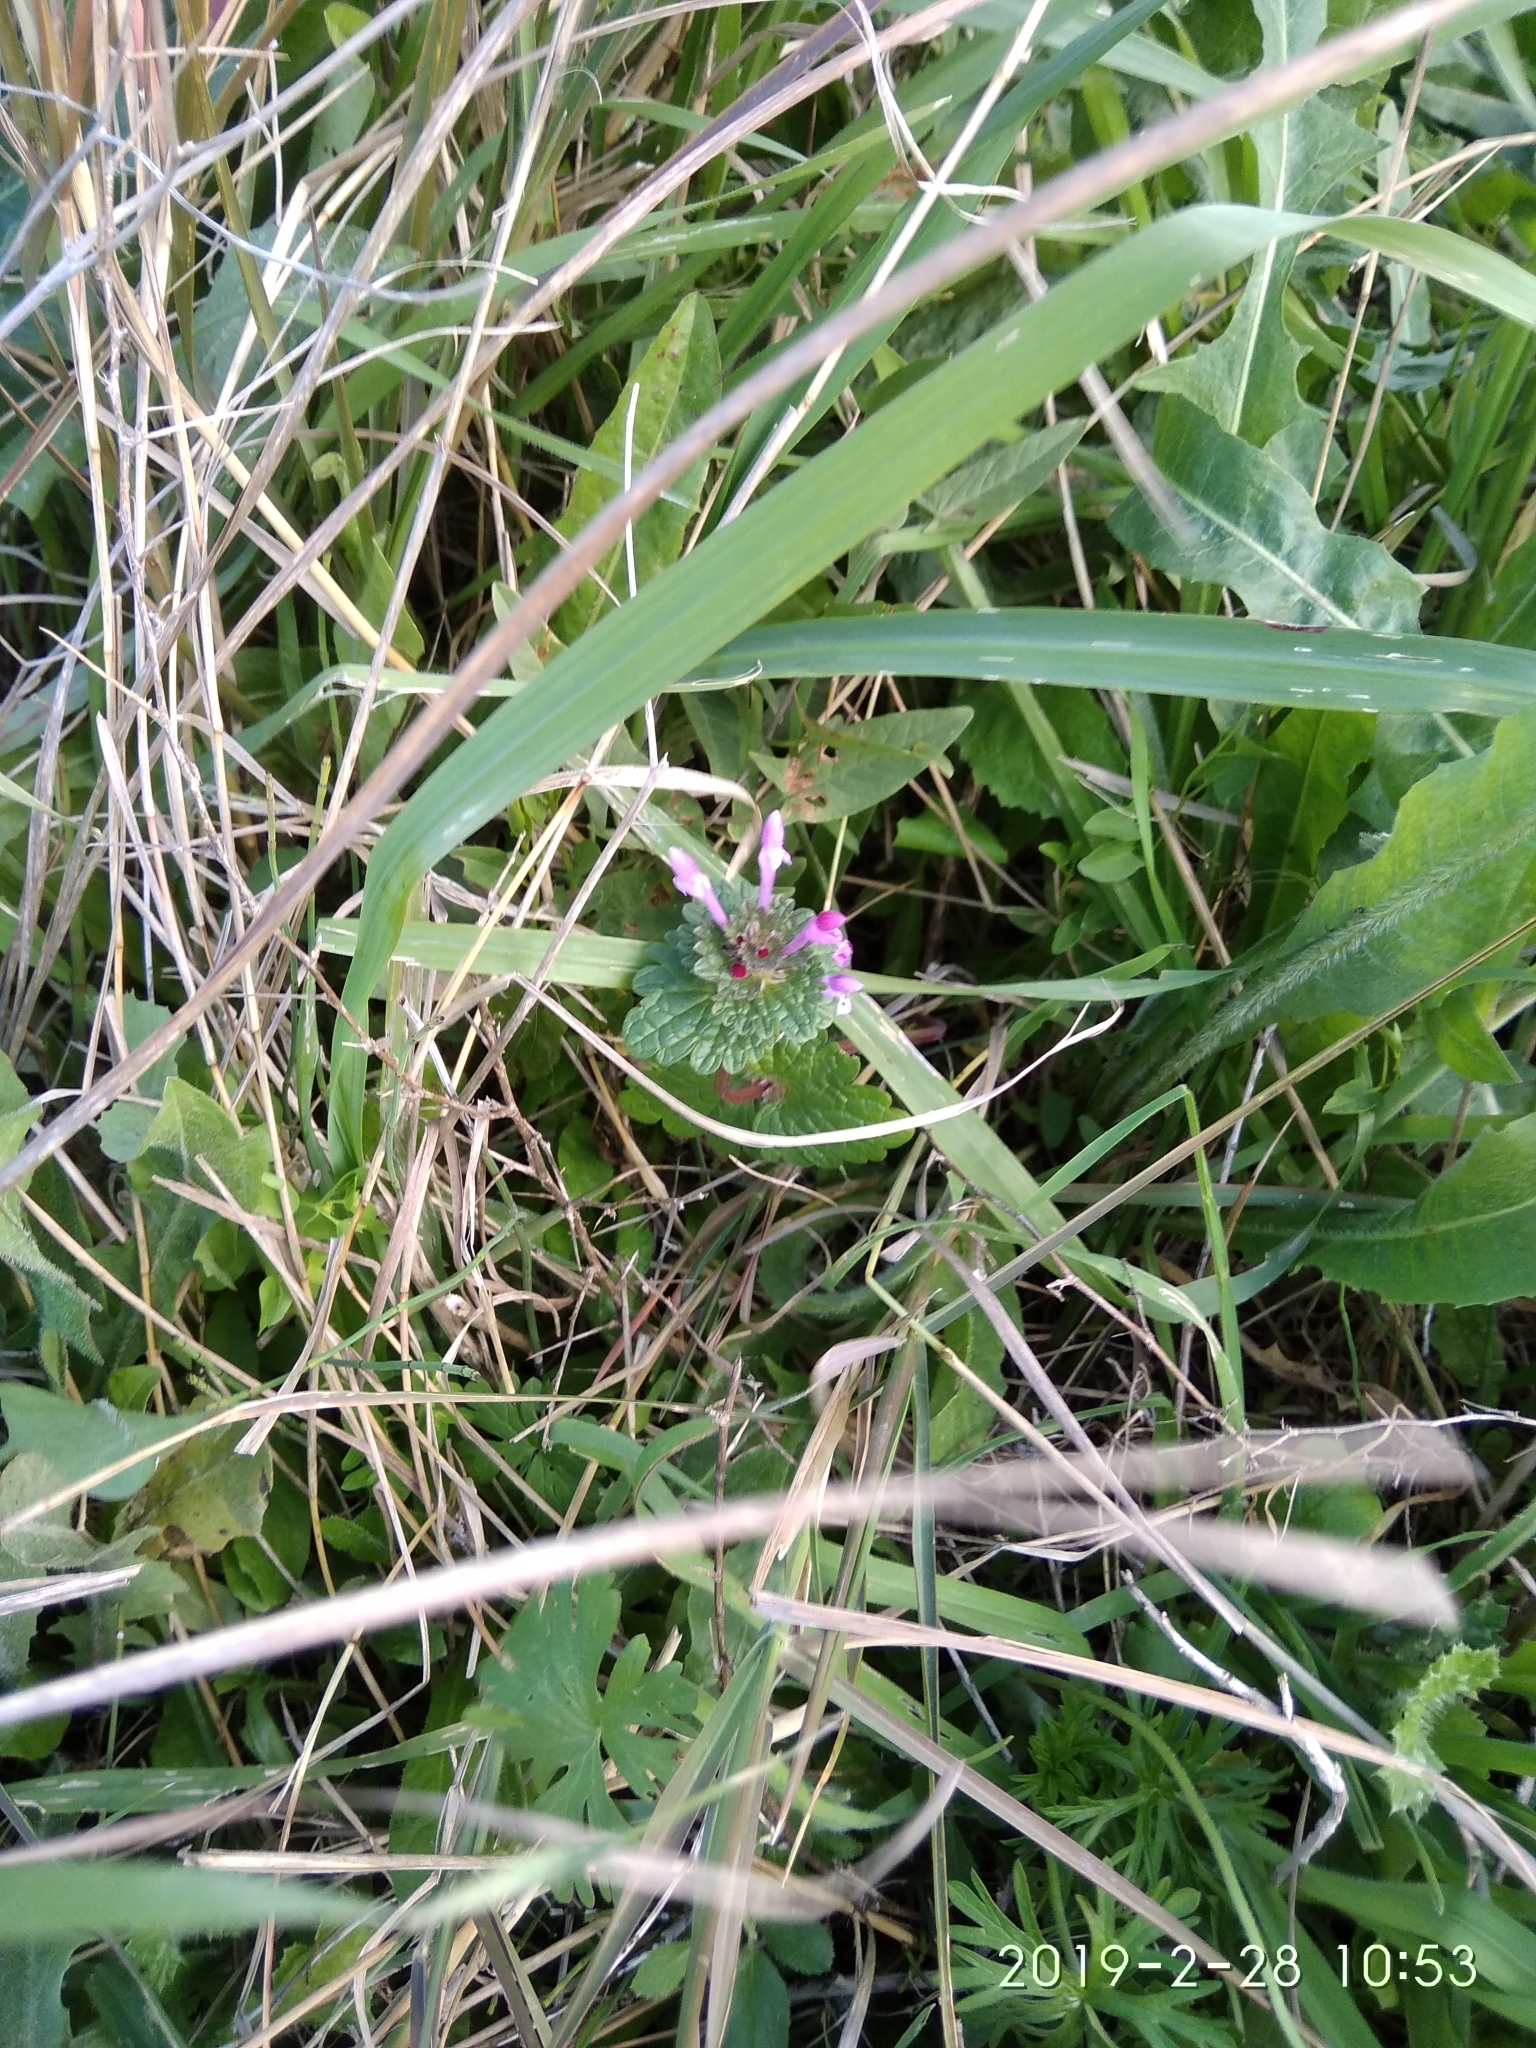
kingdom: Plantae
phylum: Tracheophyta
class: Magnoliopsida
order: Lamiales
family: Lamiaceae
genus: Lamium
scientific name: Lamium amplexicaule
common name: Henbit dead-nettle
